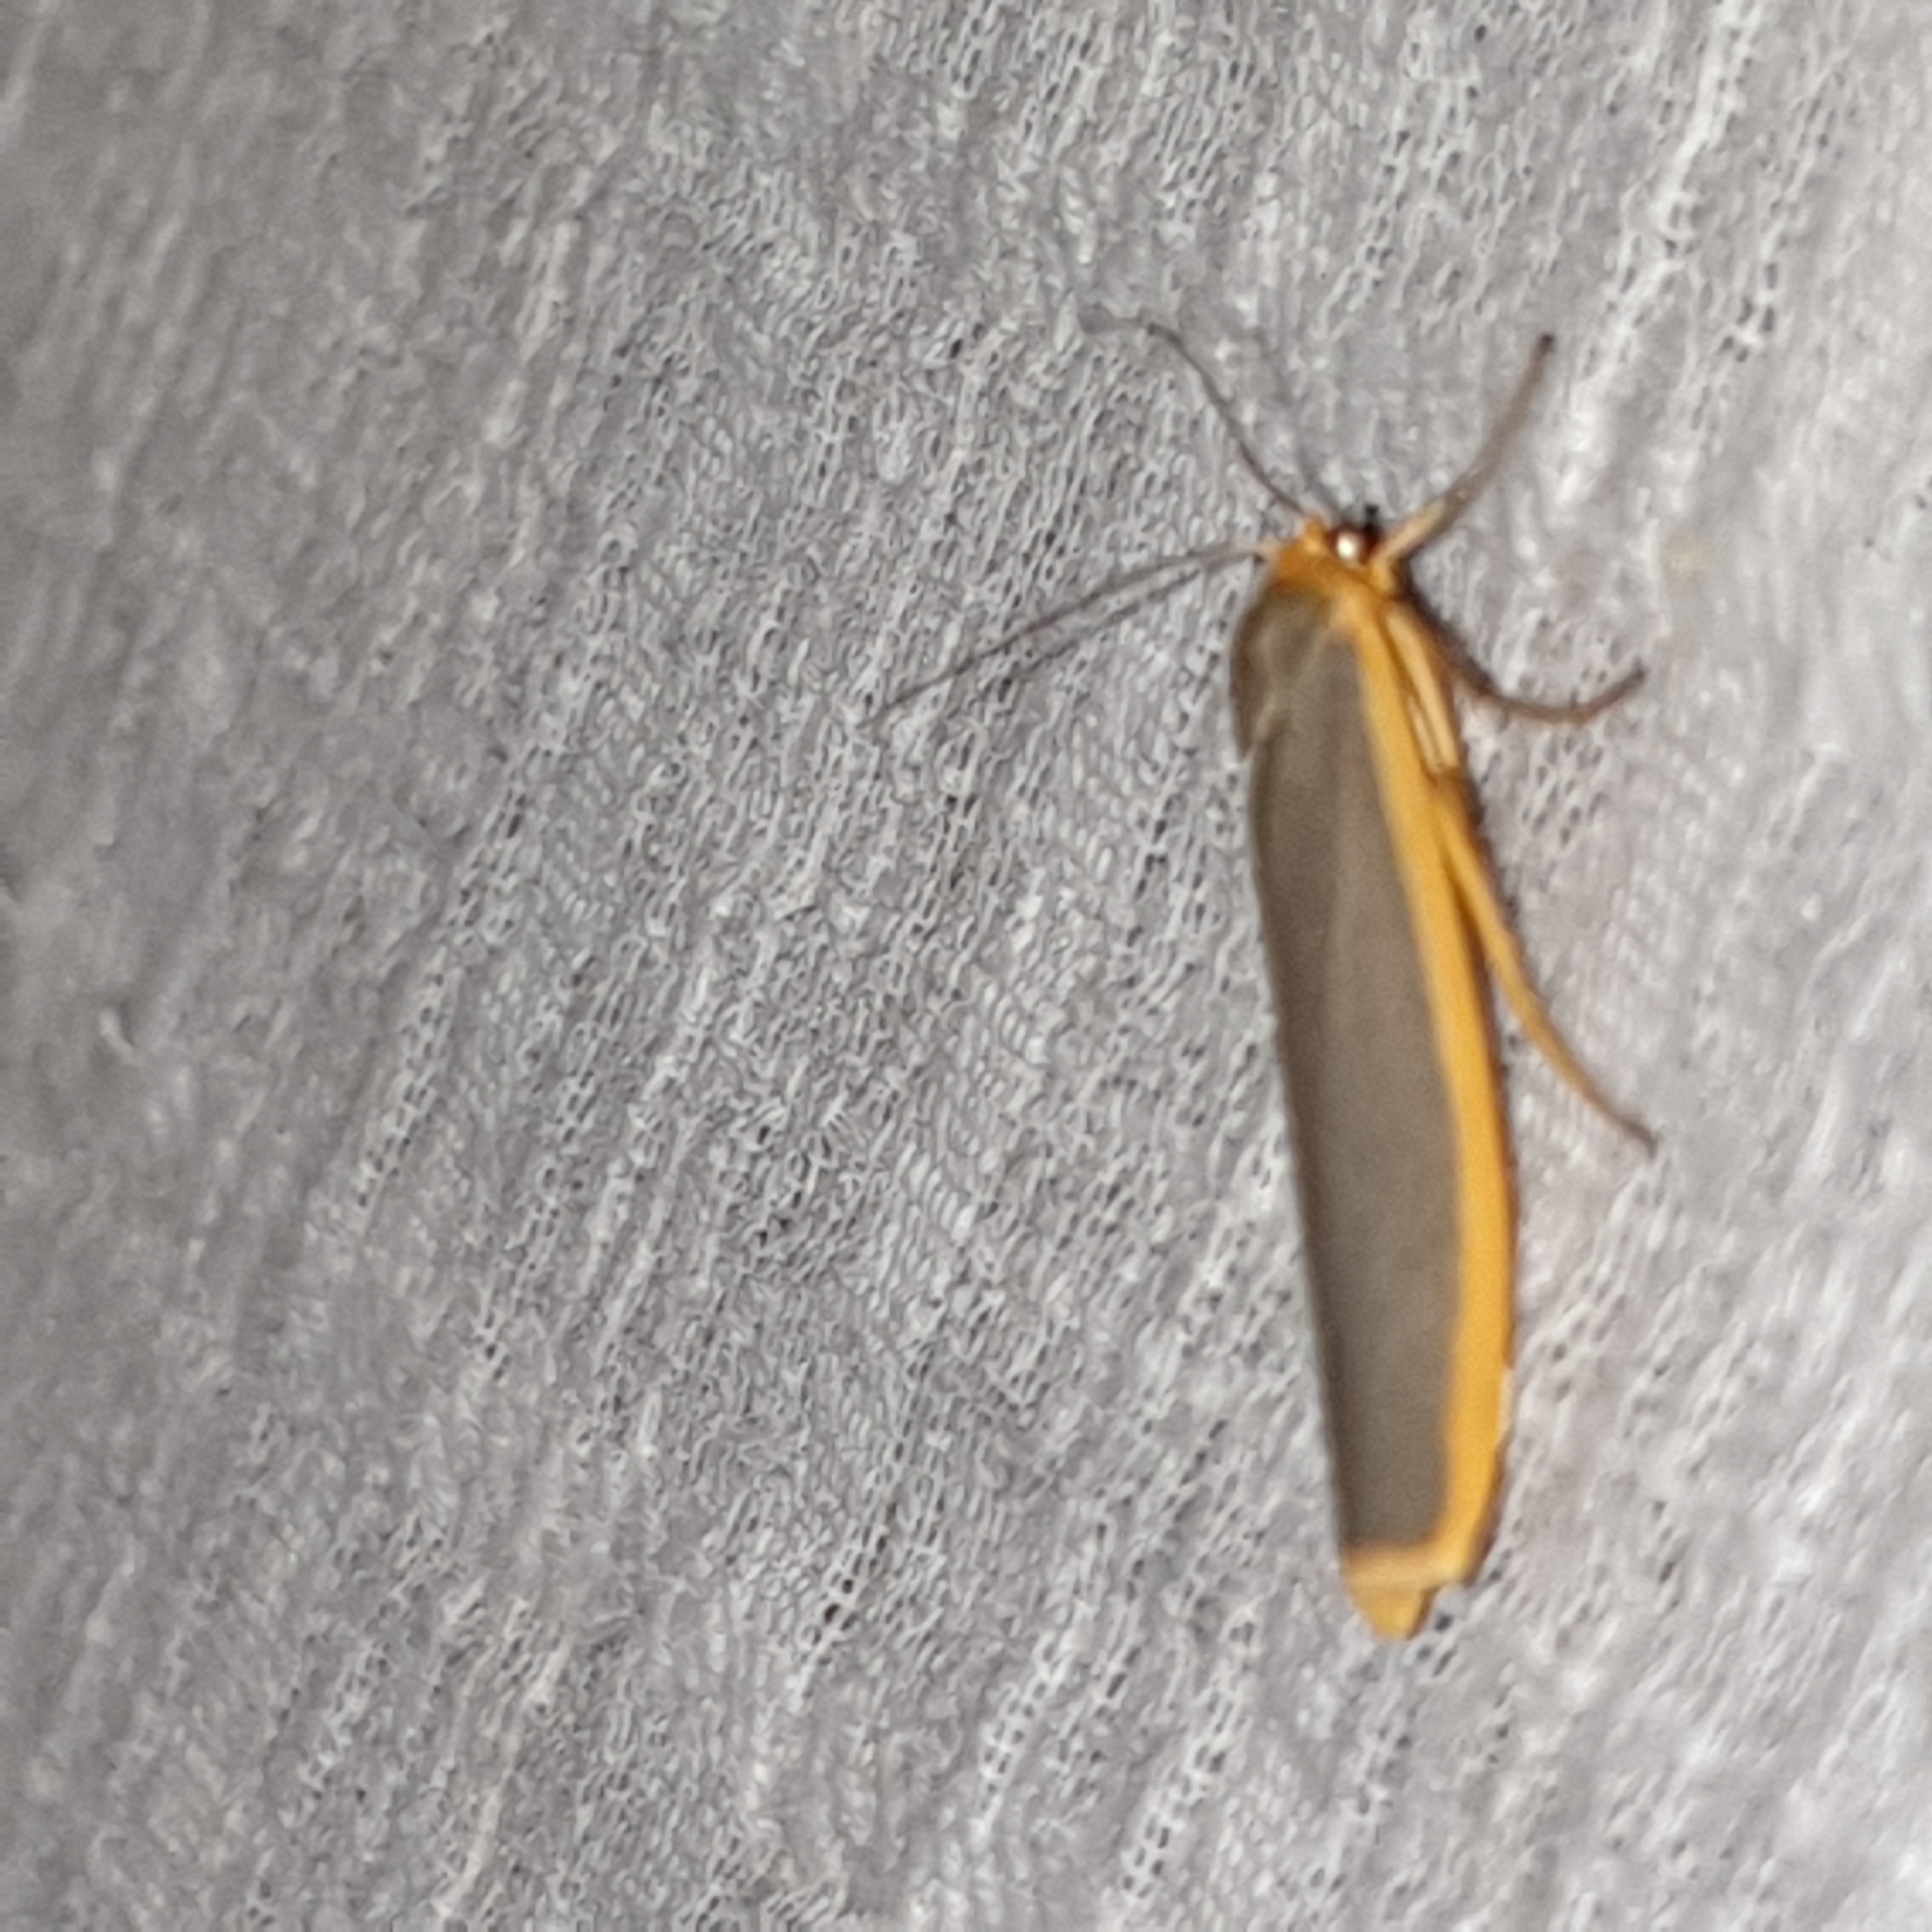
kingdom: Animalia
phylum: Arthropoda
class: Insecta
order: Lepidoptera
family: Erebidae
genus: Manulea
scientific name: Manulea complana
